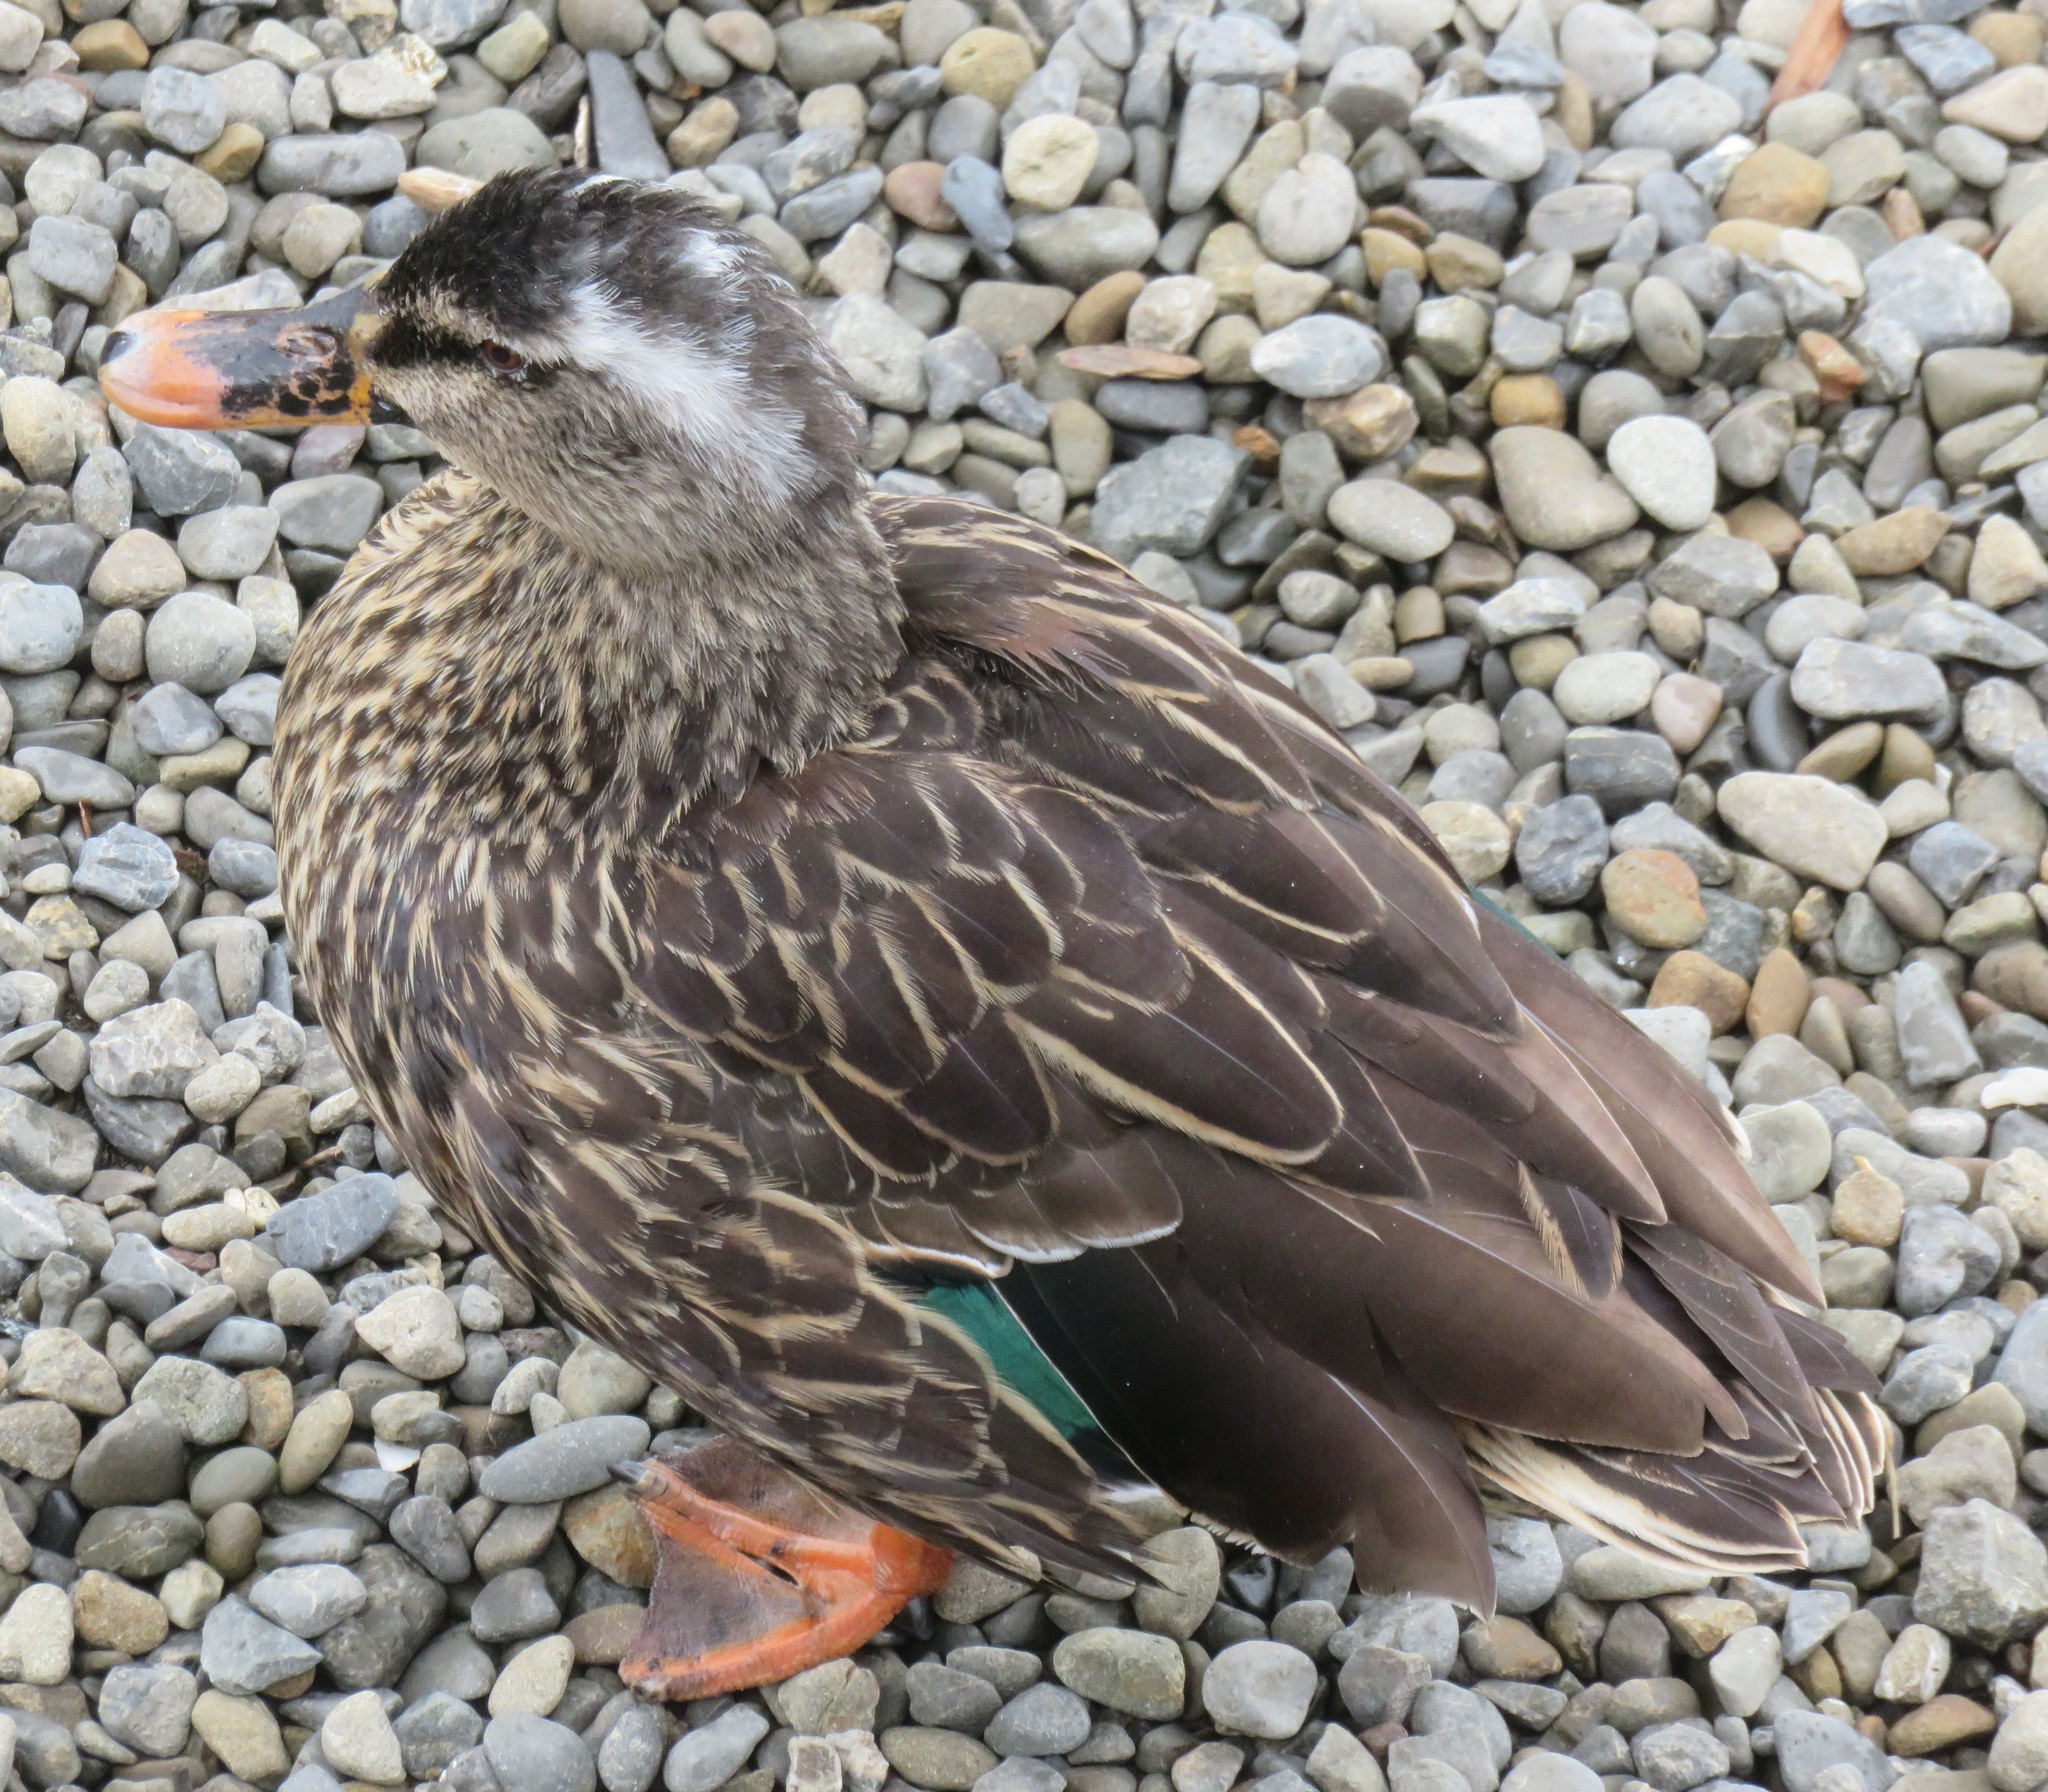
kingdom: Animalia
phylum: Chordata
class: Aves
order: Anseriformes
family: Anatidae
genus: Anas
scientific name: Anas
